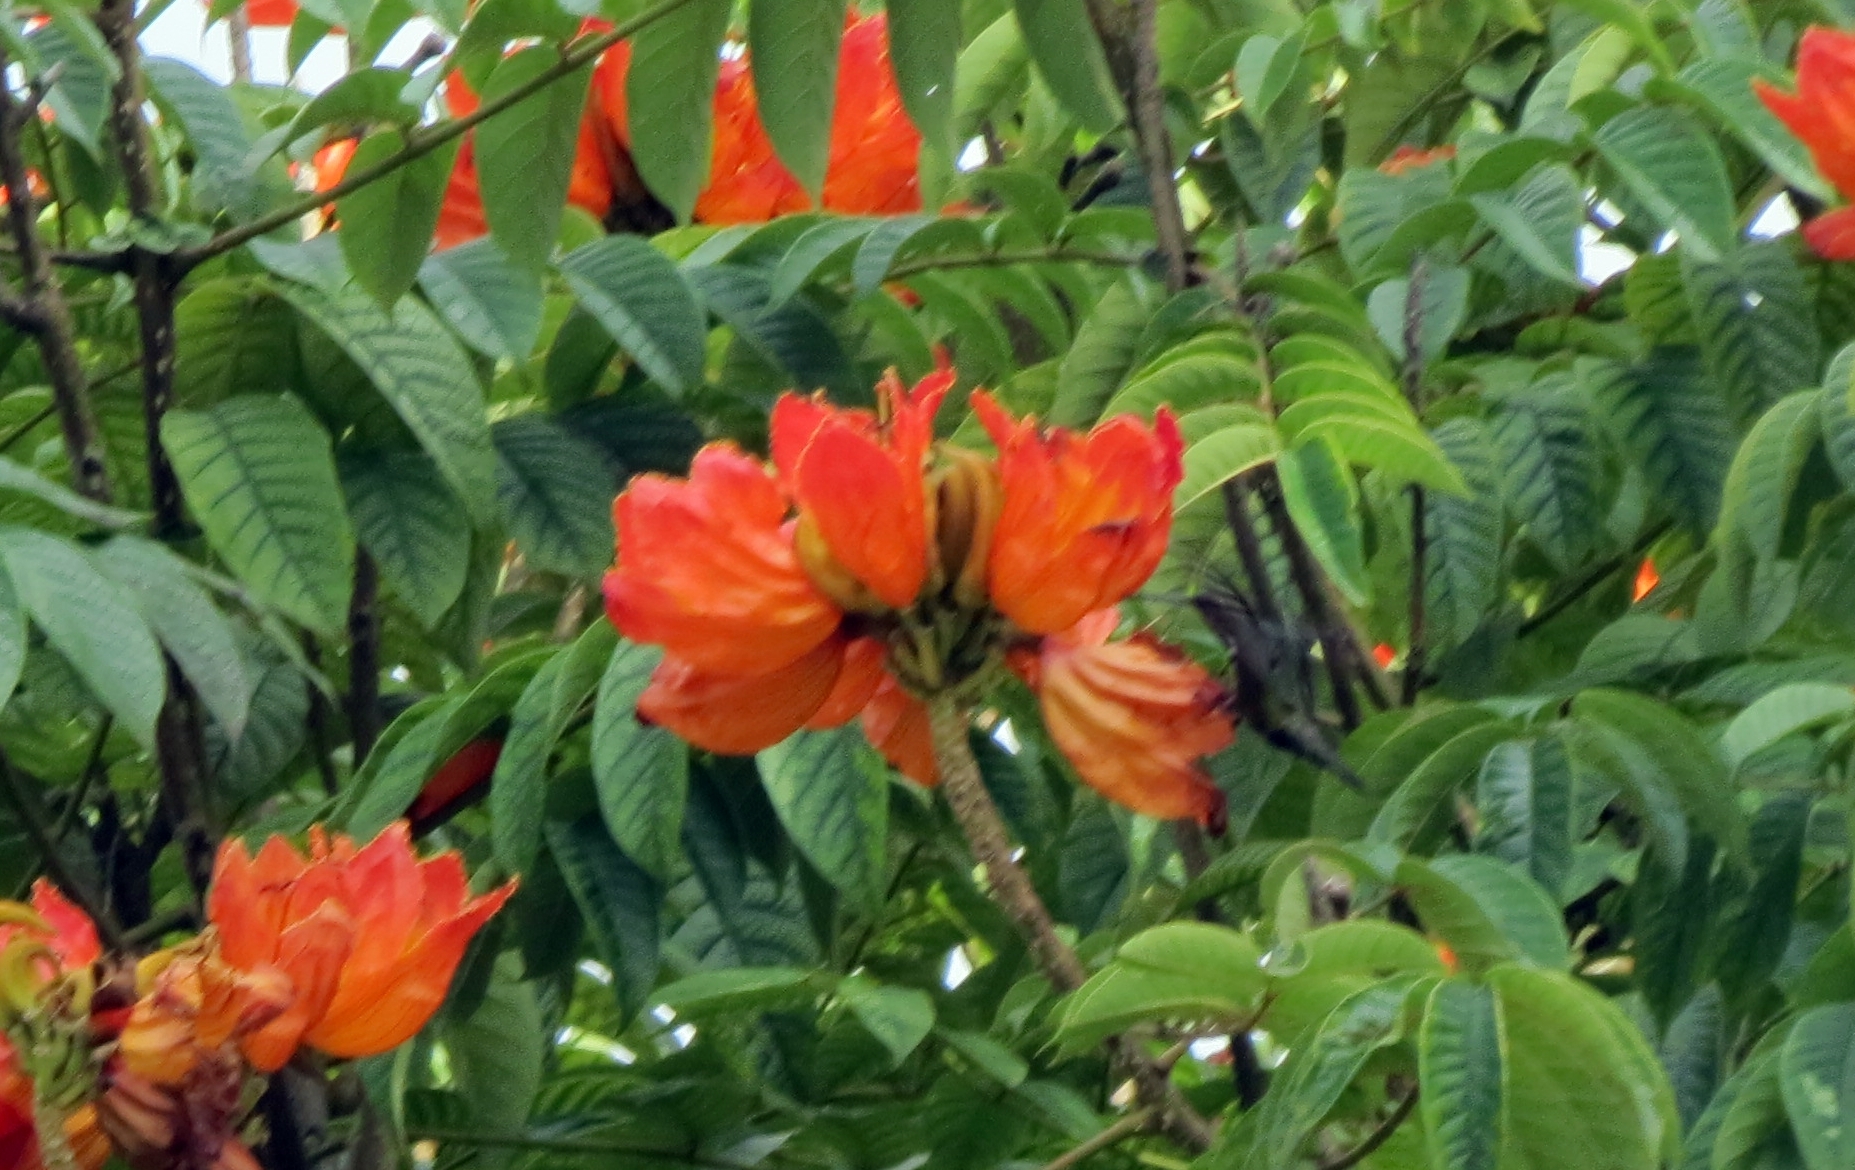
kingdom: Animalia
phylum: Chordata
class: Aves
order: Apodiformes
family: Trochilidae
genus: Anthracothorax
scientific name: Anthracothorax nigricollis
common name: Black-throated mango
